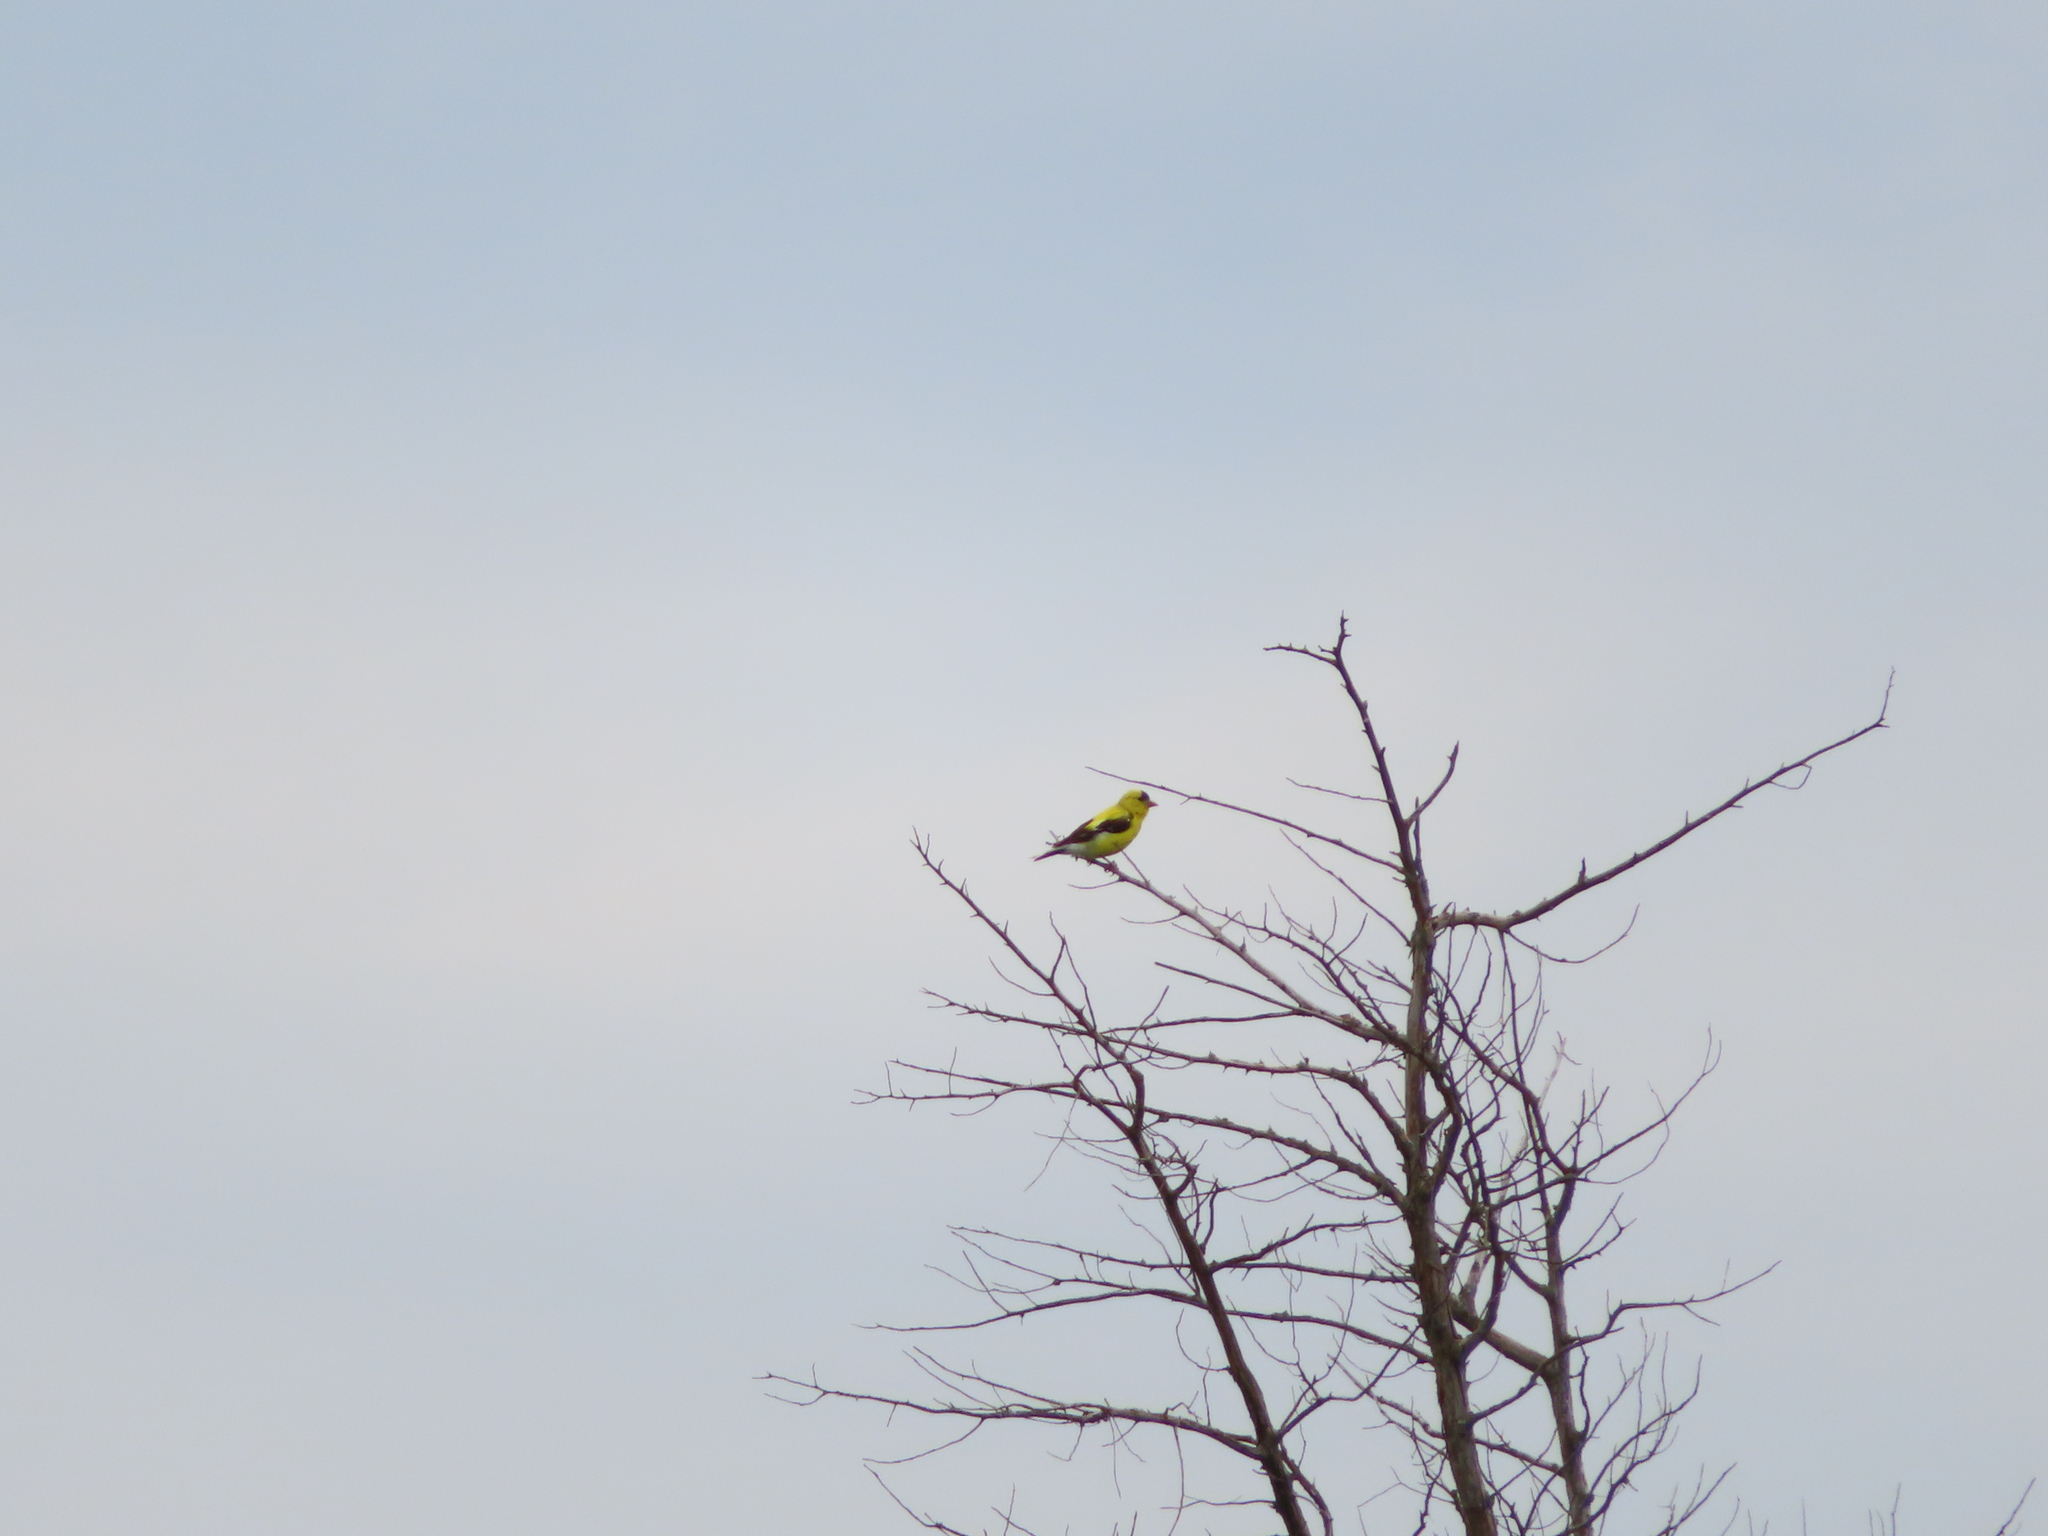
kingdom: Animalia
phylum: Chordata
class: Aves
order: Passeriformes
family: Fringillidae
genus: Spinus
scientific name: Spinus tristis
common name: American goldfinch
